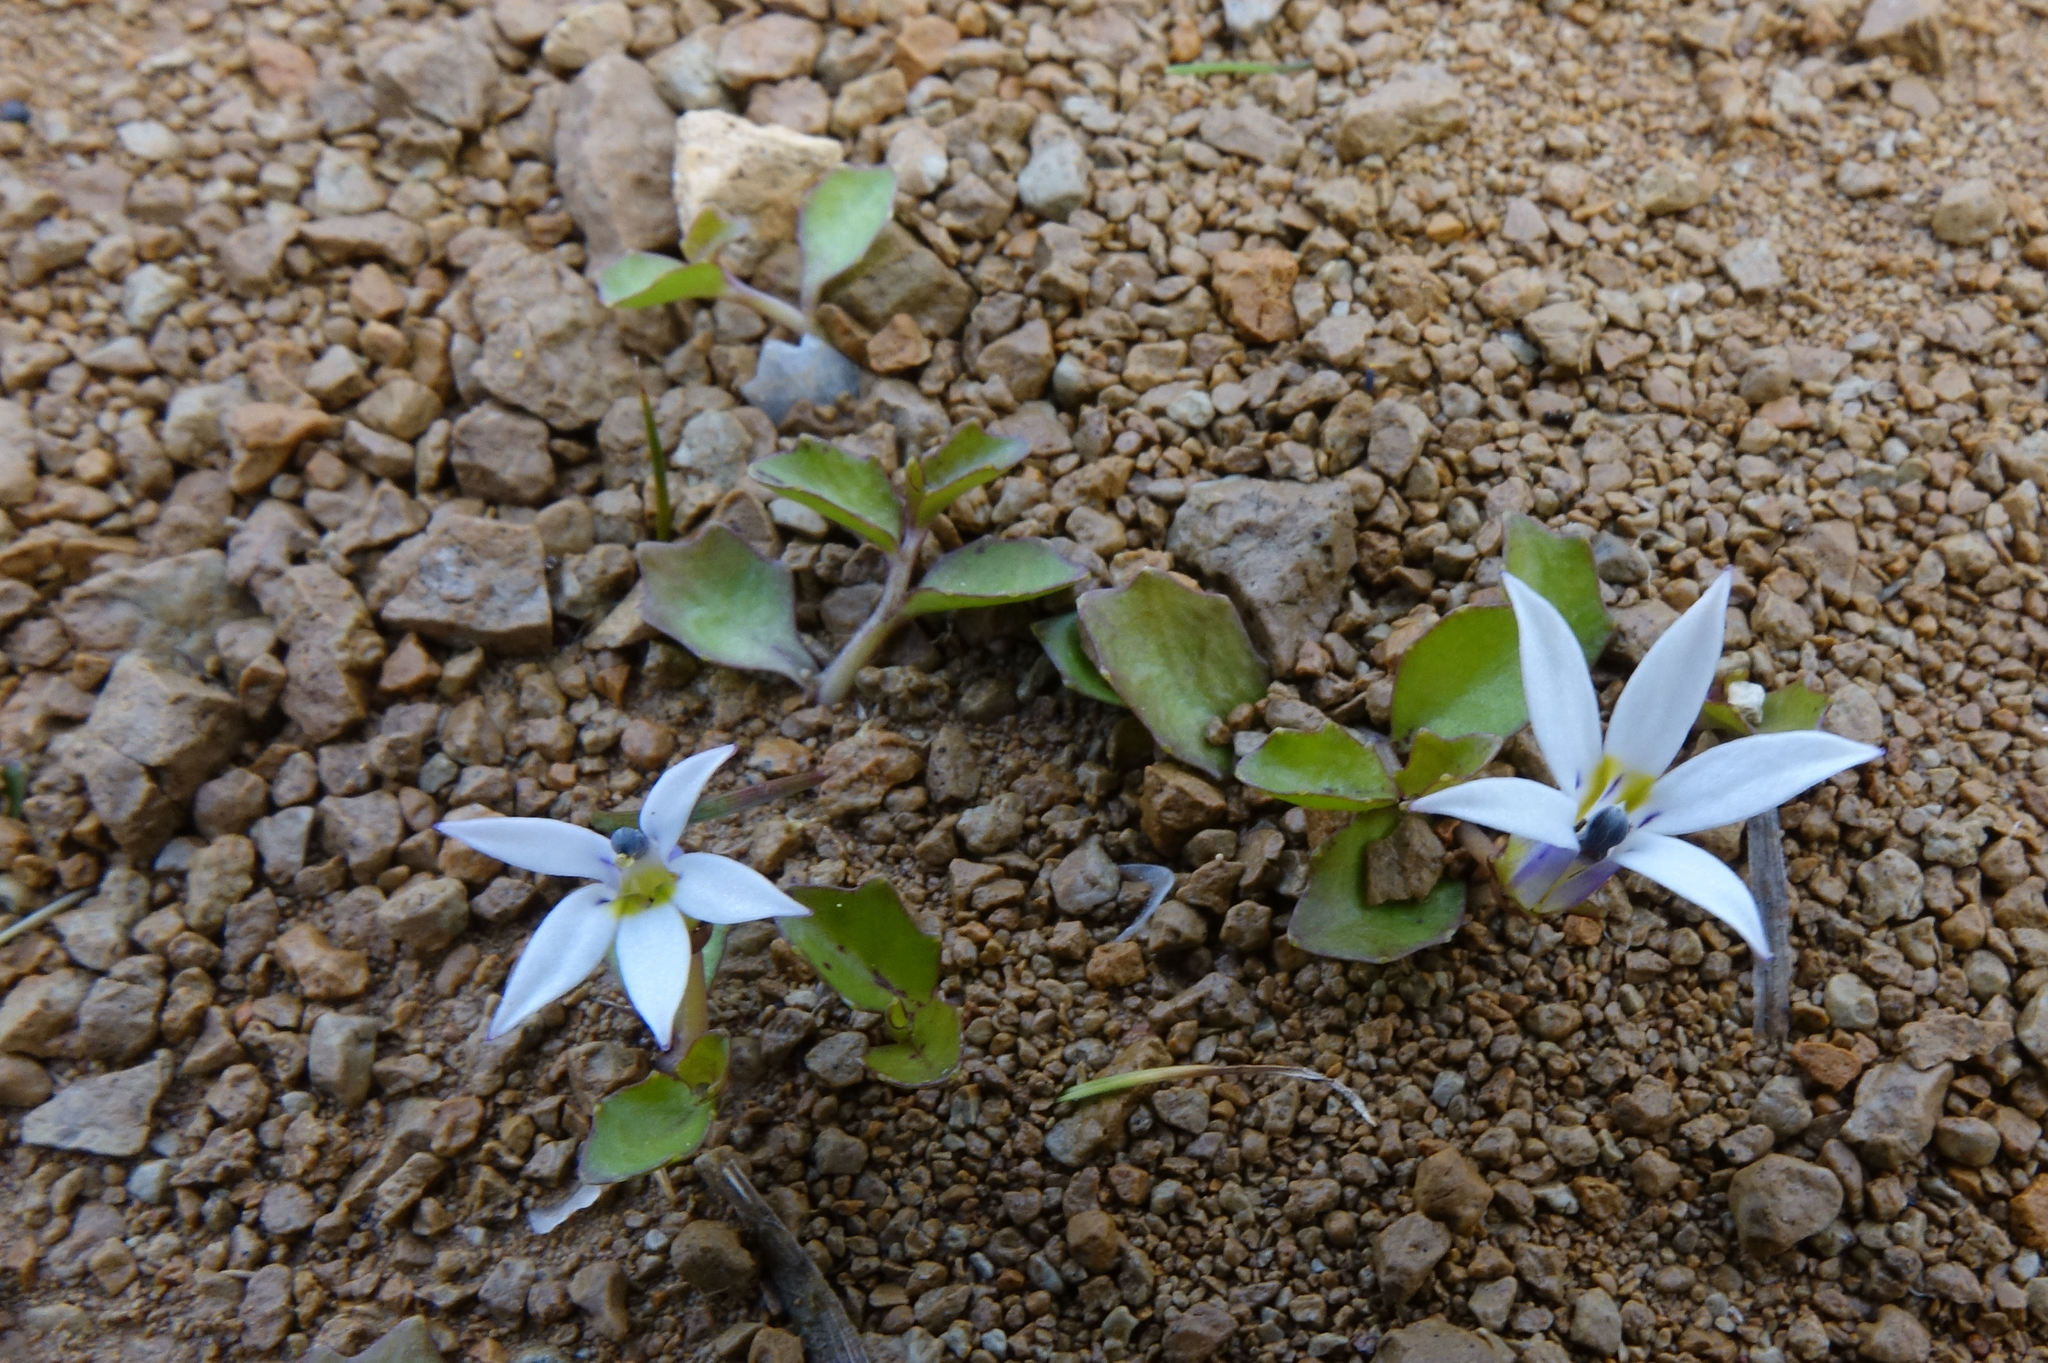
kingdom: Plantae
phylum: Tracheophyta
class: Magnoliopsida
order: Asterales
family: Campanulaceae
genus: Lobelia
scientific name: Lobelia angulata
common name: Lawn lobelia
